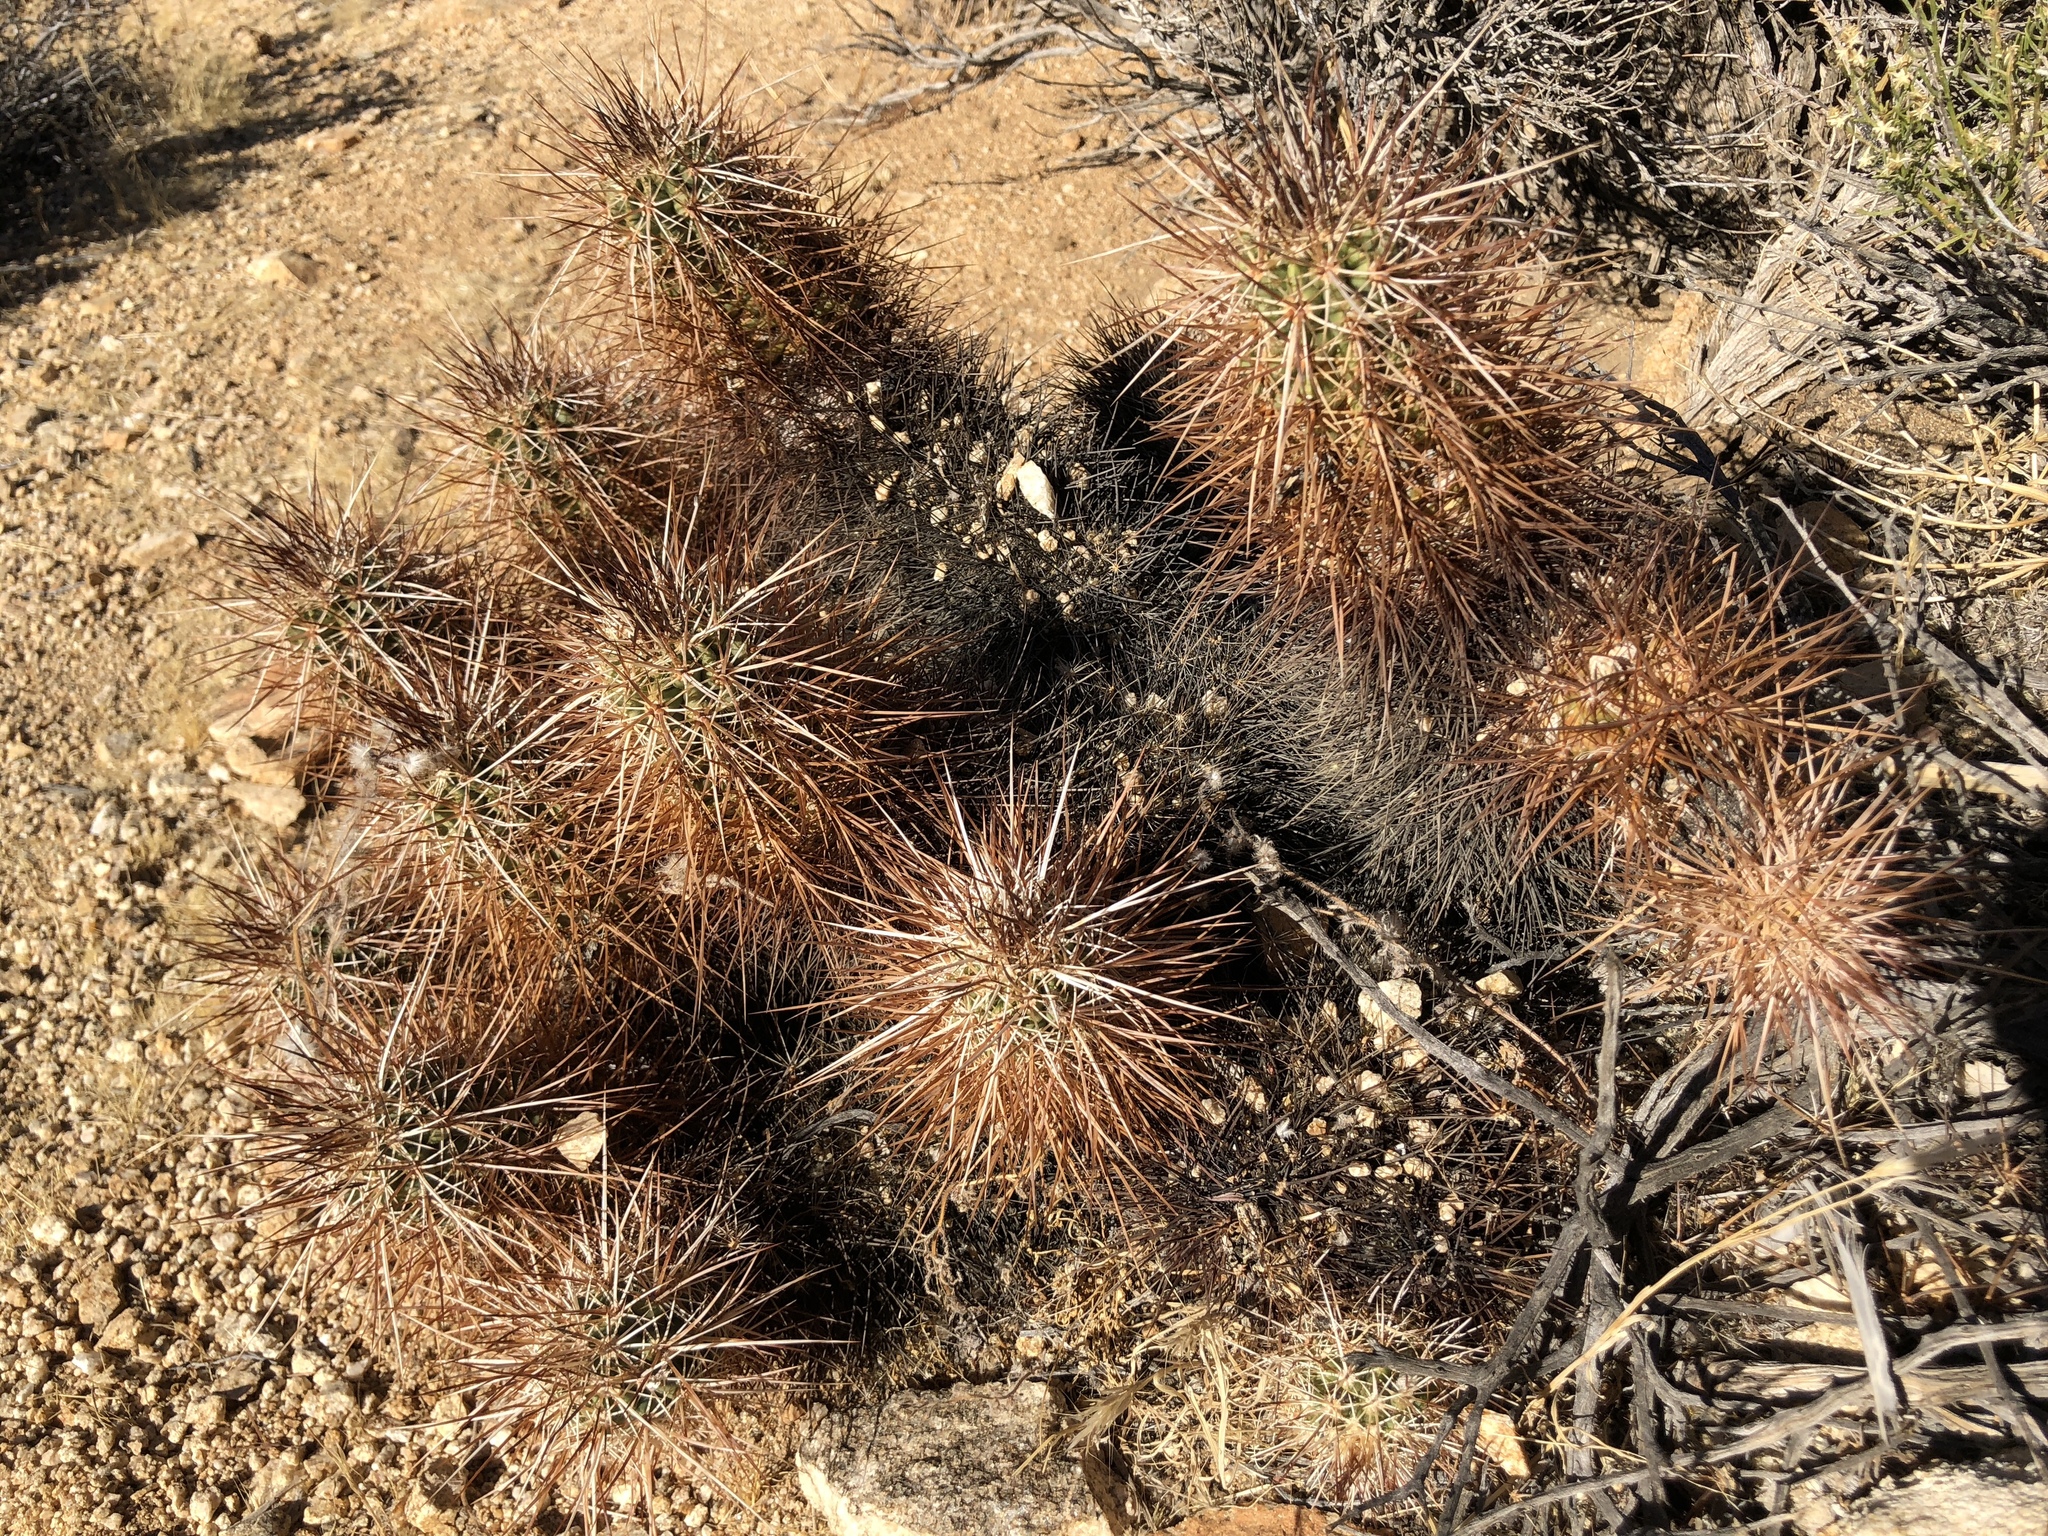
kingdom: Plantae
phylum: Tracheophyta
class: Magnoliopsida
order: Caryophyllales
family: Cactaceae
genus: Echinocereus
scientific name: Echinocereus engelmannii
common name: Engelmann's hedgehog cactus
